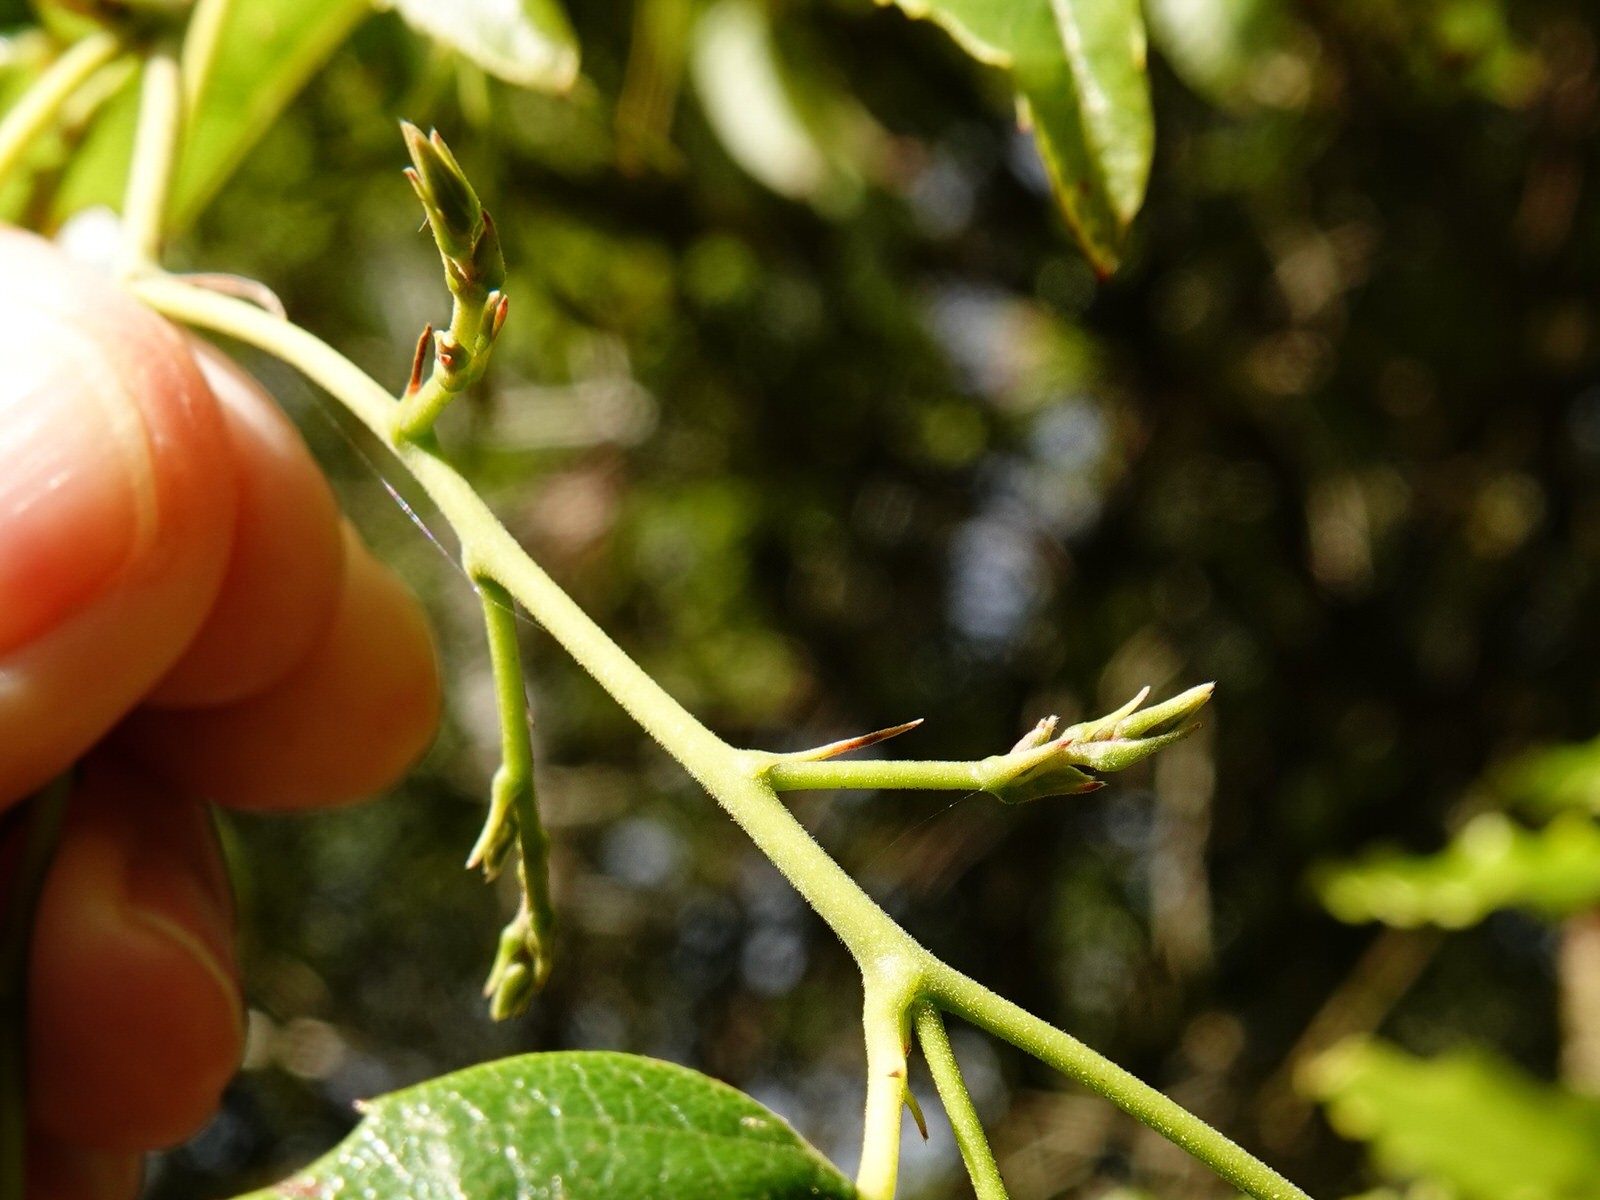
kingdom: Plantae
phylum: Tracheophyta
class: Magnoliopsida
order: Rosales
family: Rosaceae
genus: Rubus
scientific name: Rubus cissoides
